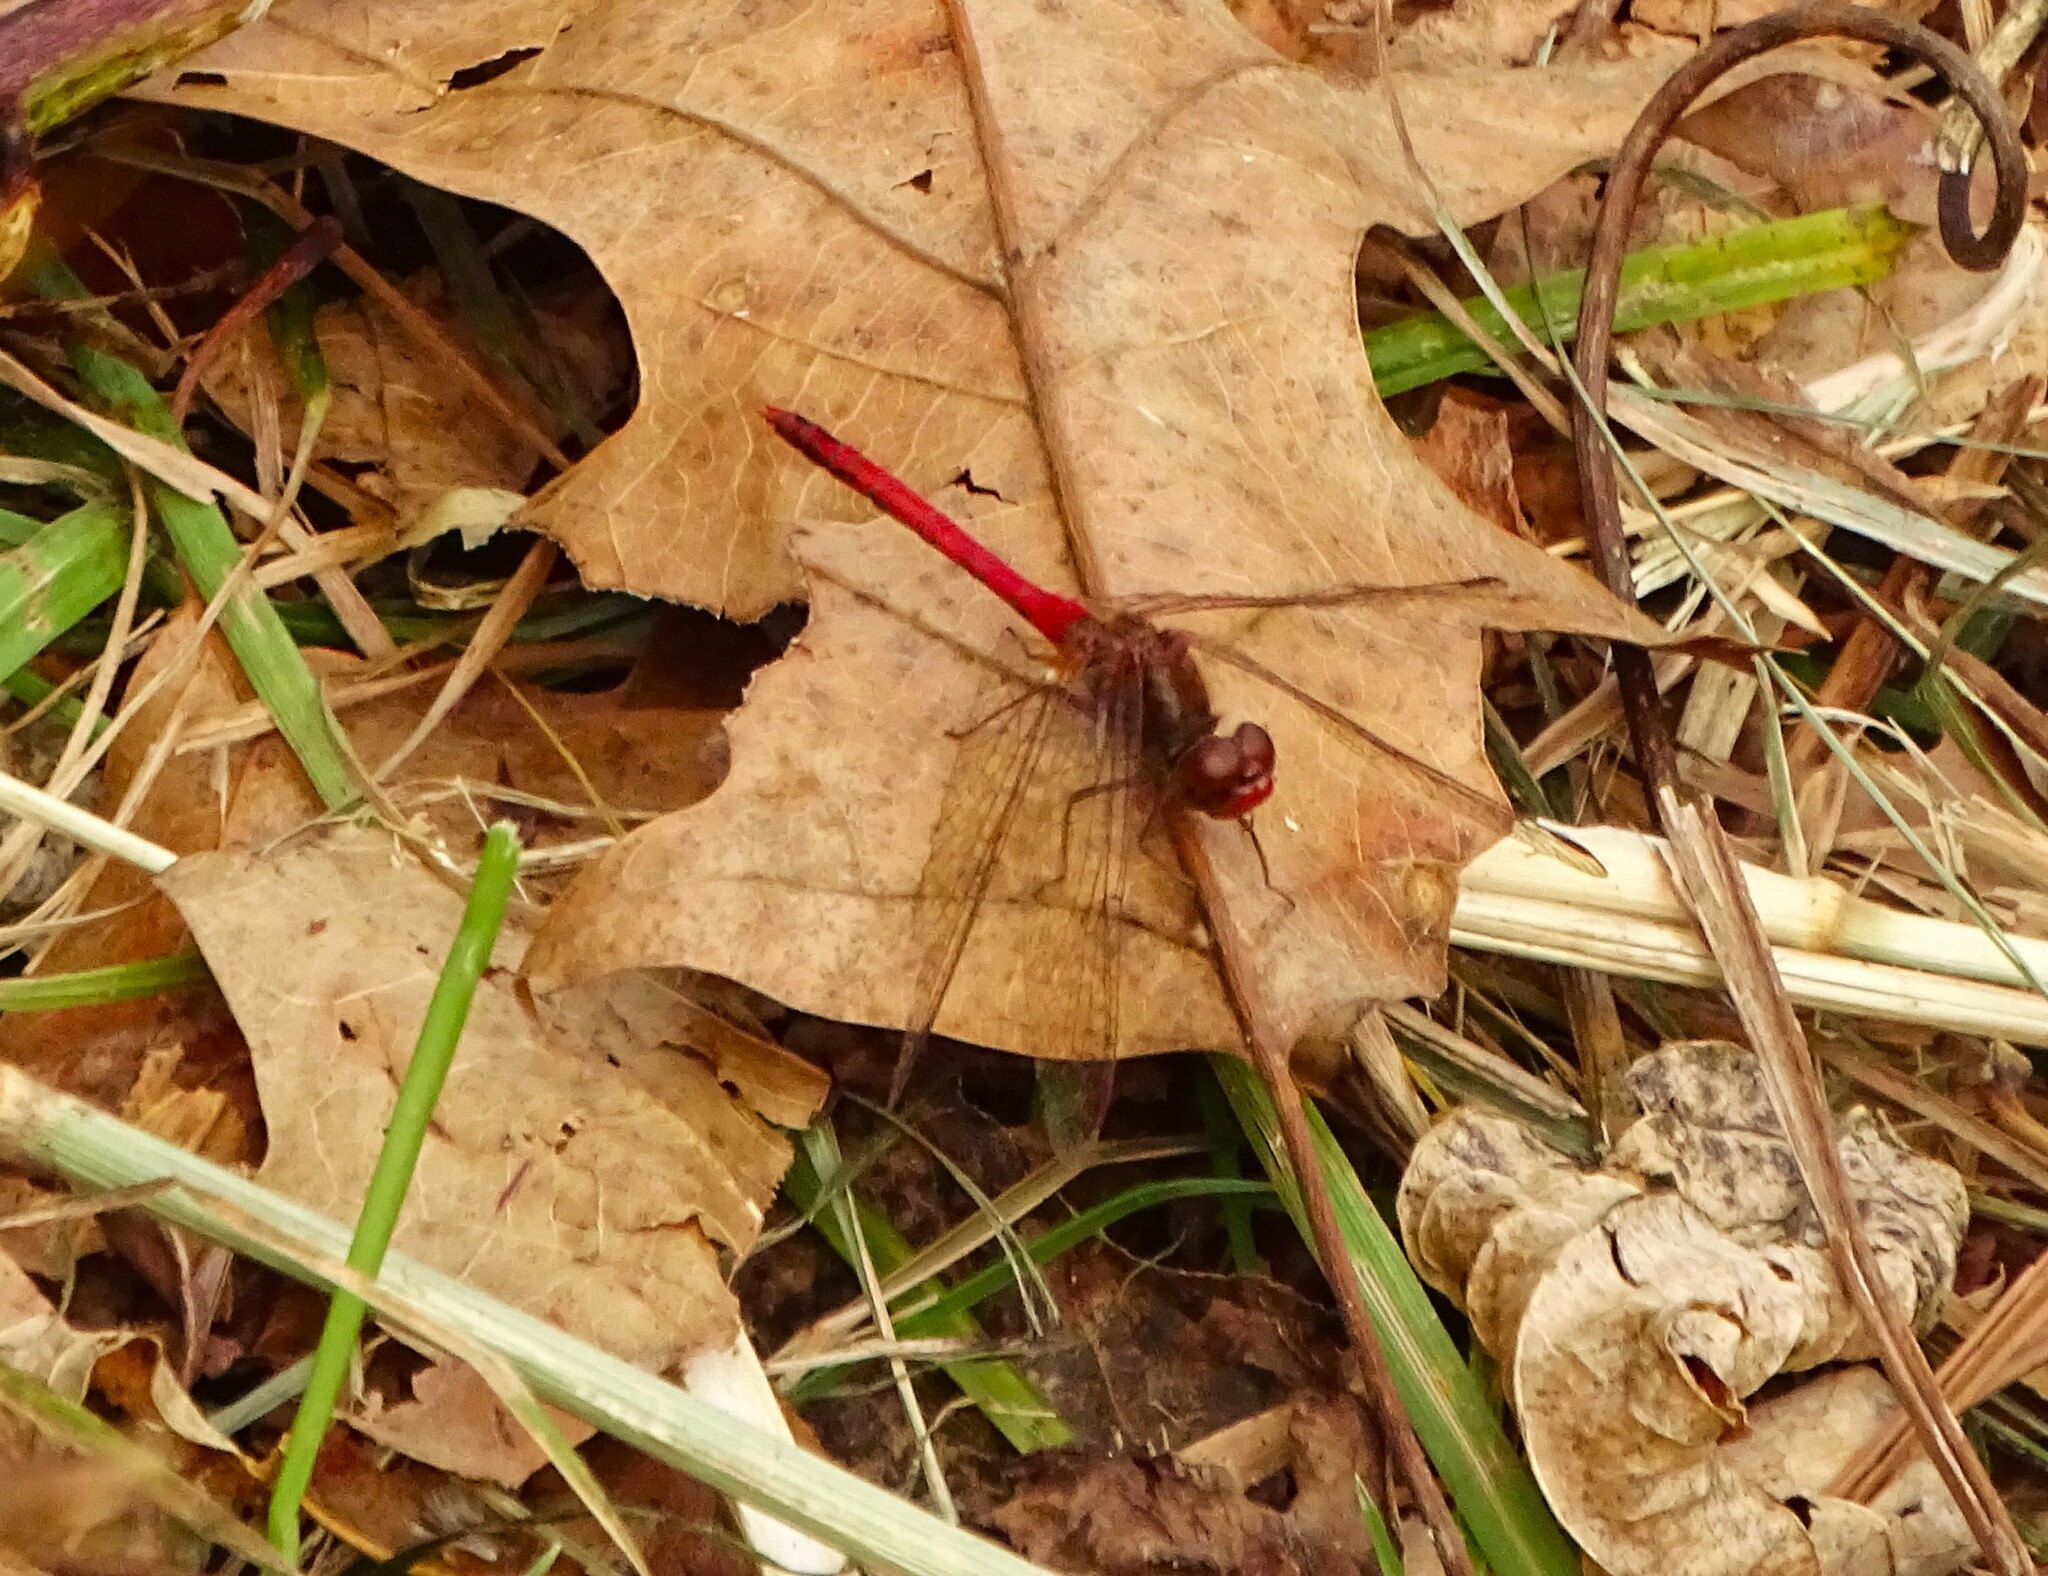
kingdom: Animalia
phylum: Arthropoda
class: Insecta
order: Odonata
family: Libellulidae
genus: Sympetrum
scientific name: Sympetrum vicinum
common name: Autumn meadowhawk
